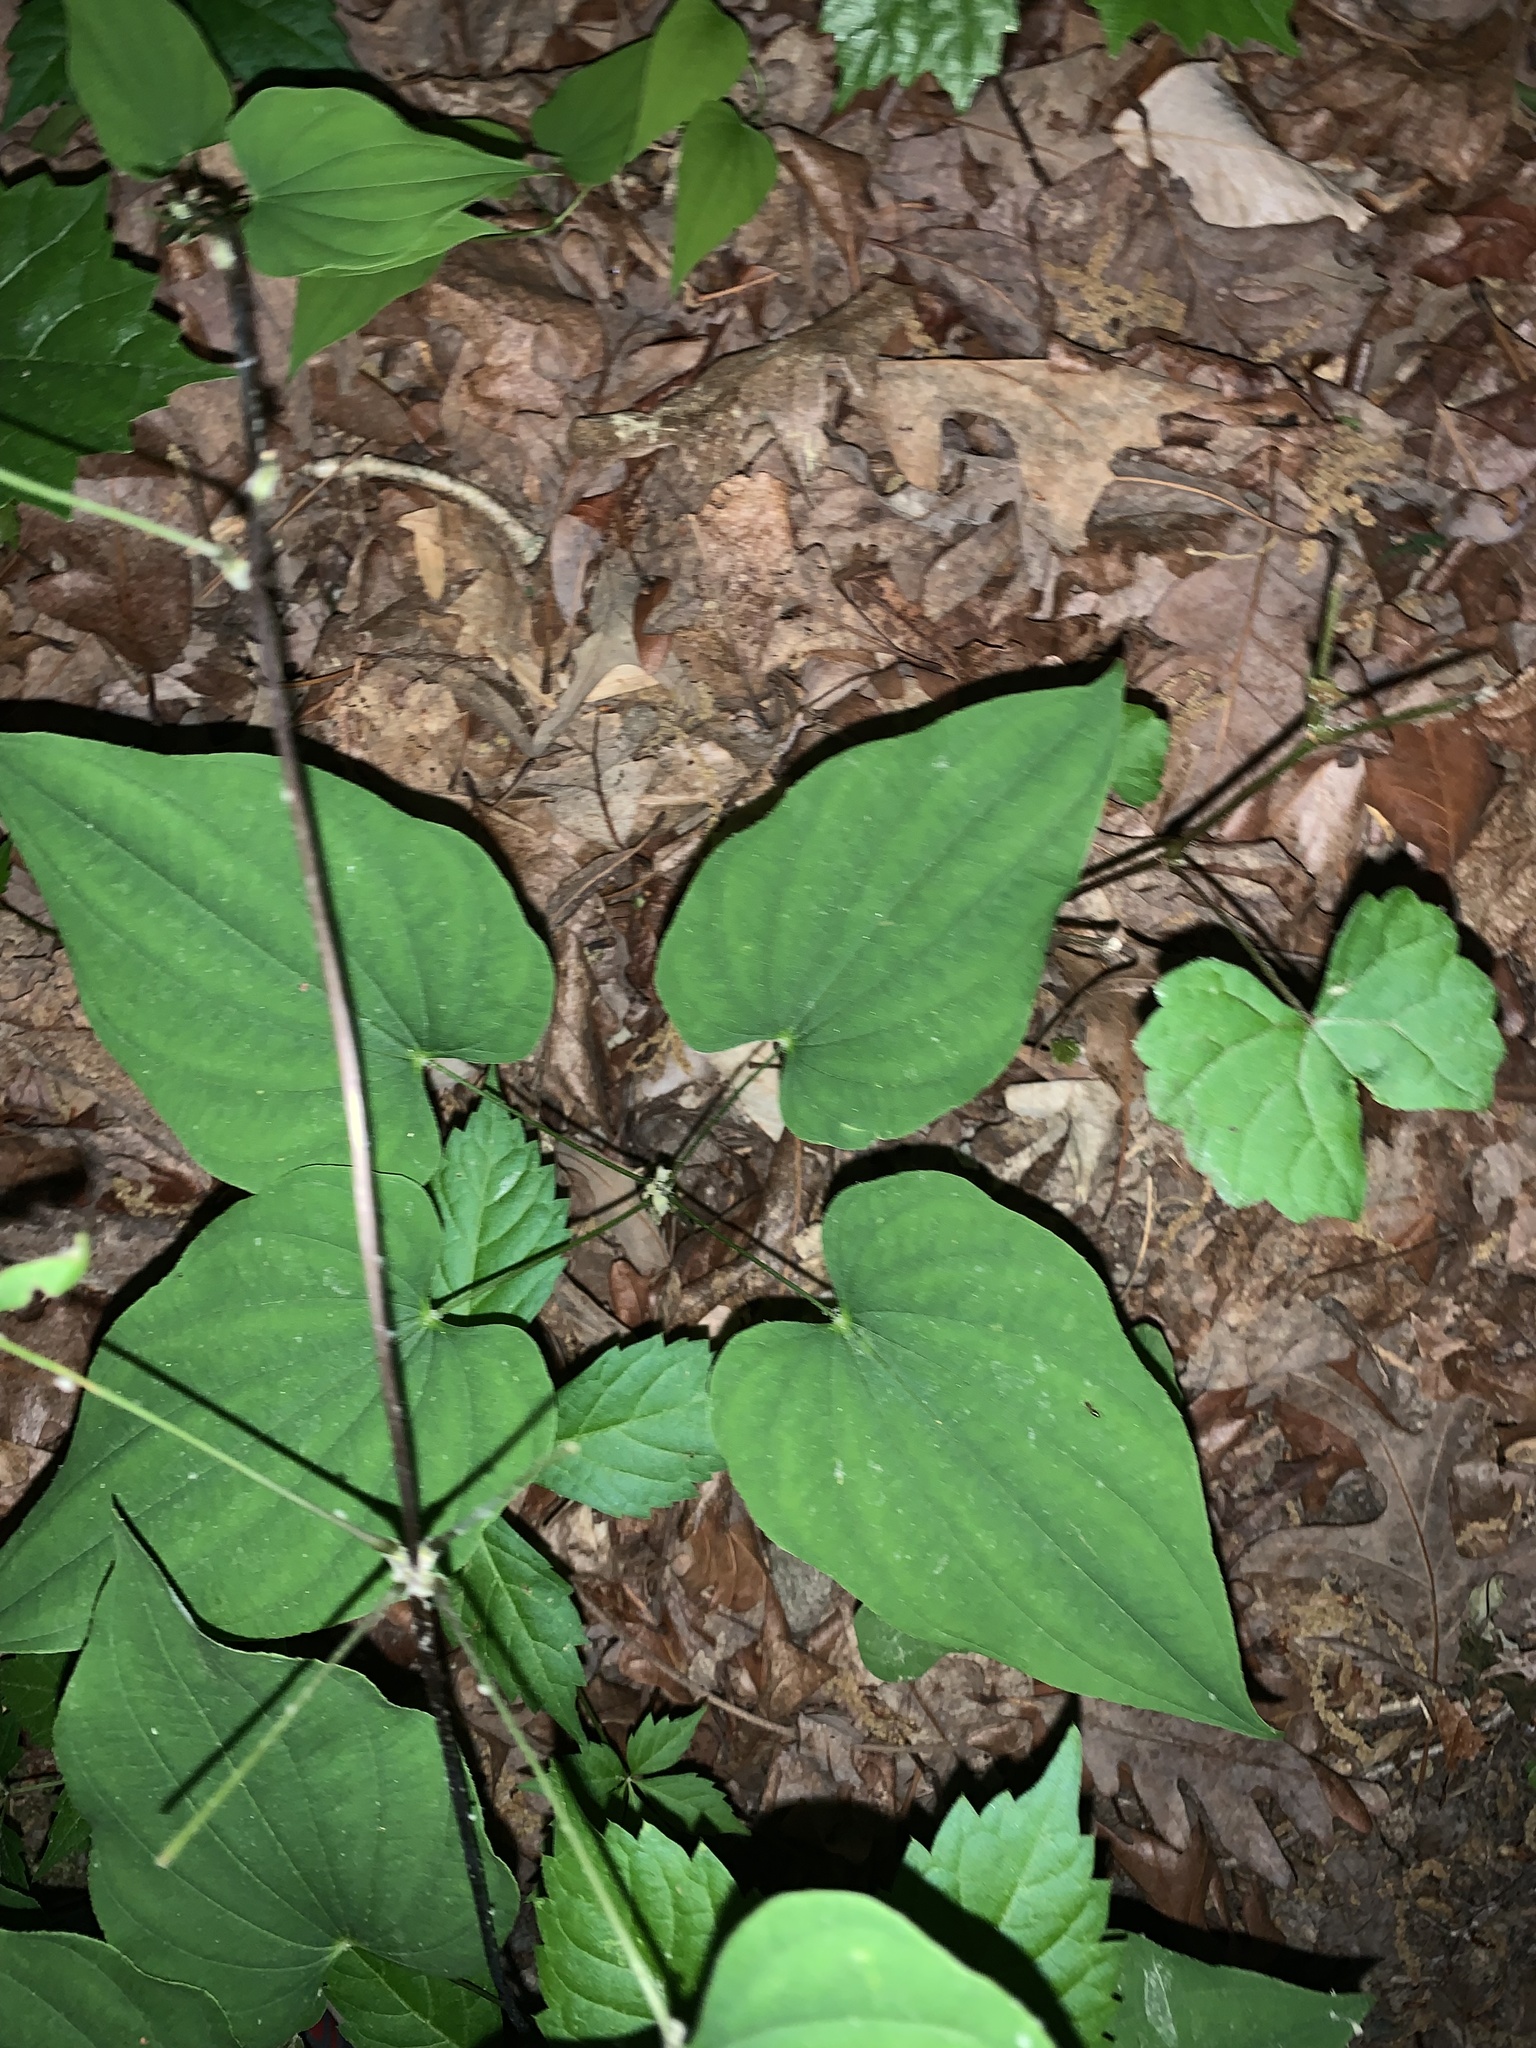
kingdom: Plantae
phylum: Tracheophyta
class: Liliopsida
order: Dioscoreales
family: Dioscoreaceae
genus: Dioscorea
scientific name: Dioscorea villosa
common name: Wild yam
